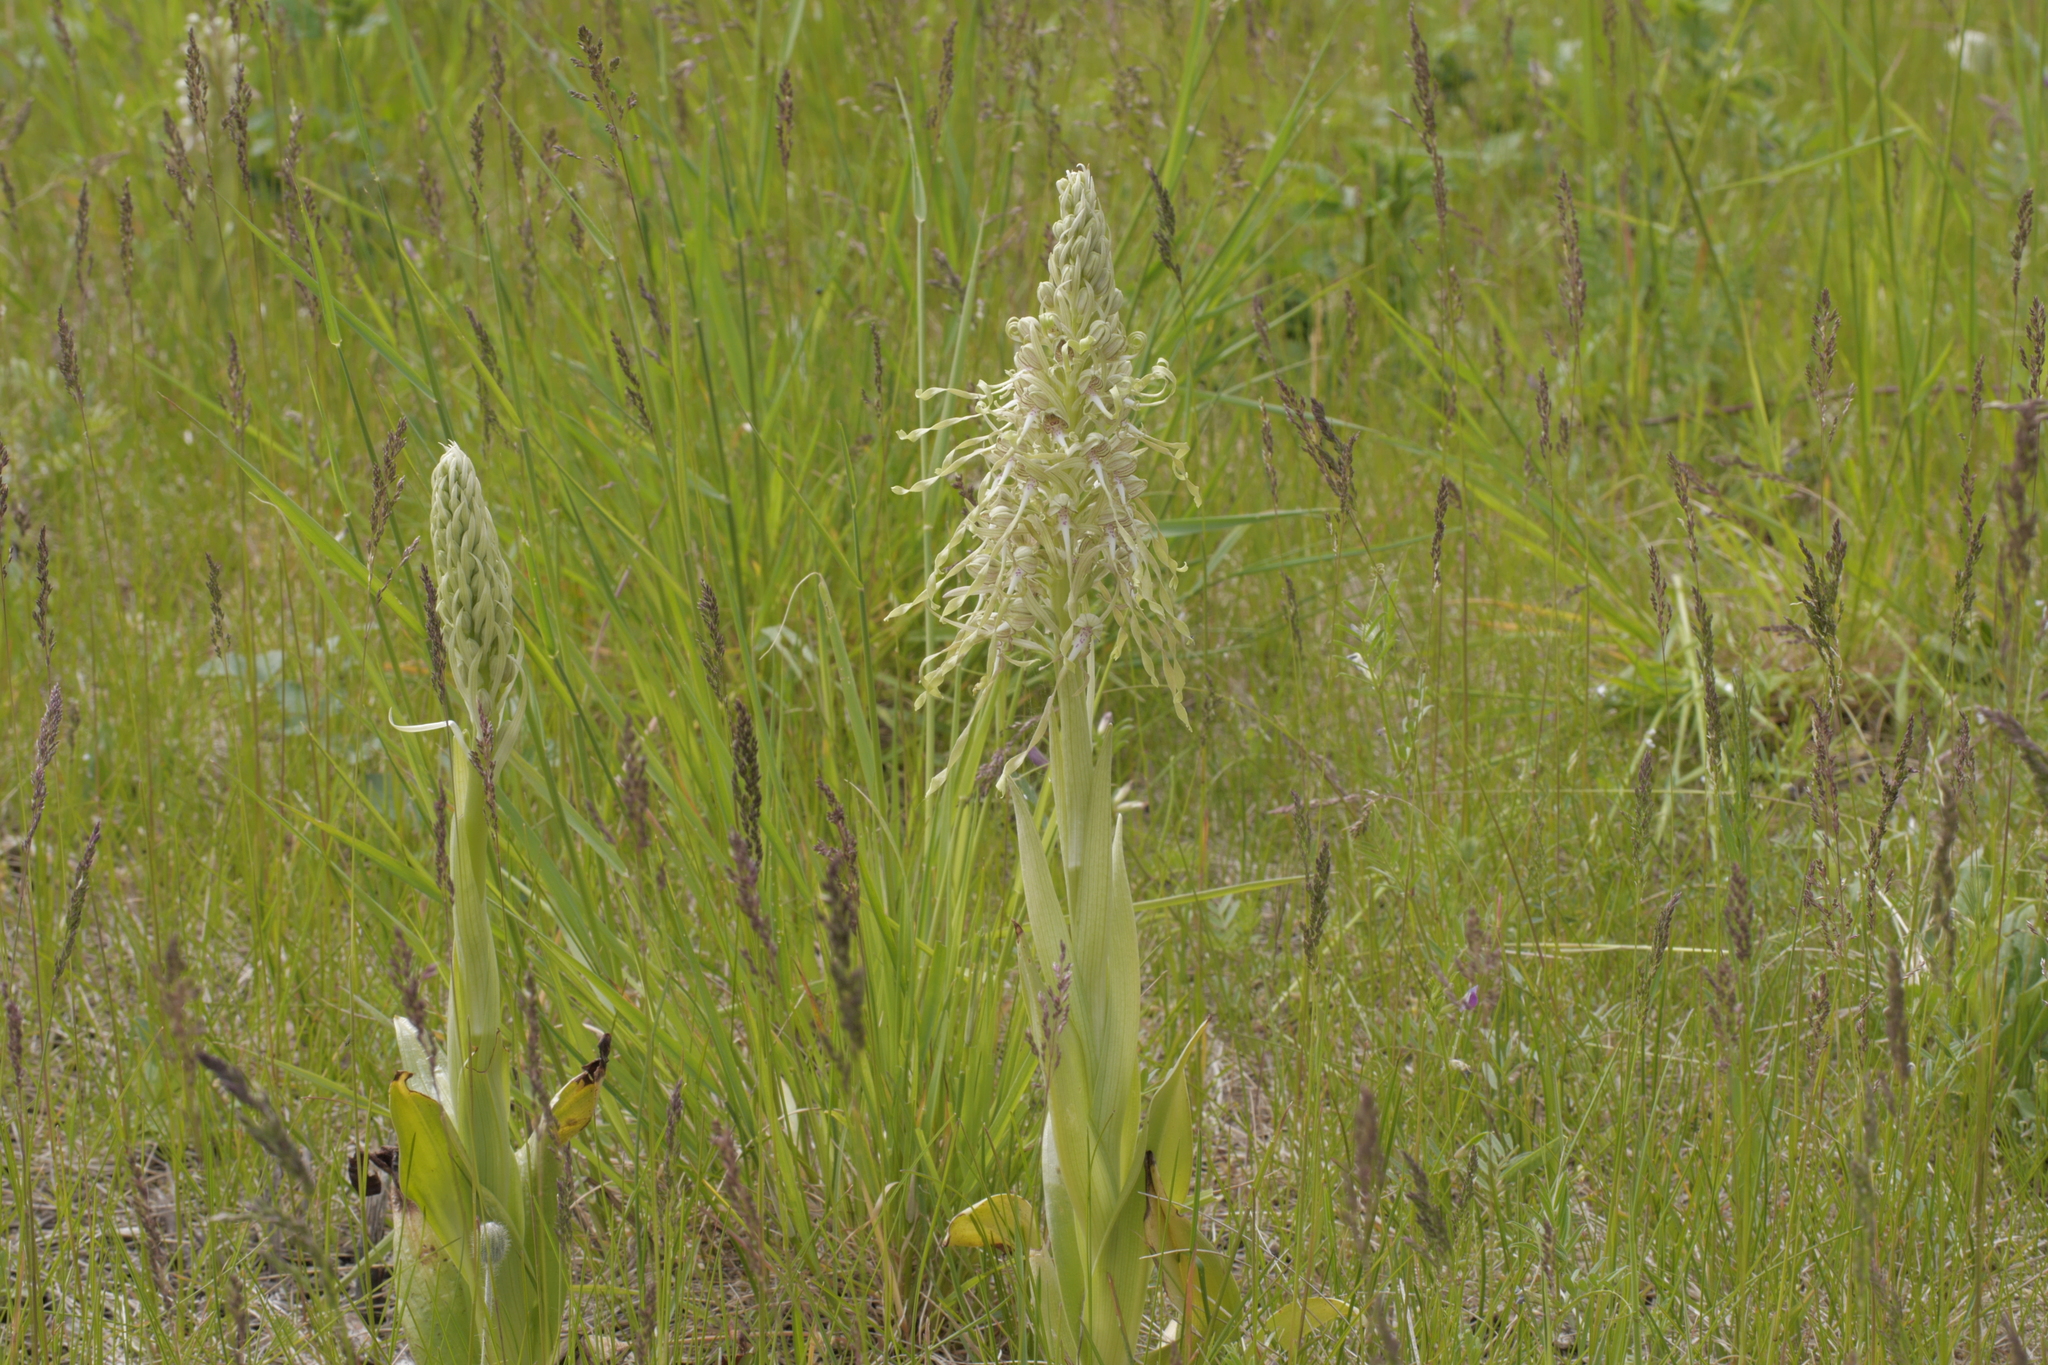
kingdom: Plantae
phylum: Tracheophyta
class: Liliopsida
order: Asparagales
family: Orchidaceae
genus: Himantoglossum
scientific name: Himantoglossum hircinum
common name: Lizard orchid
